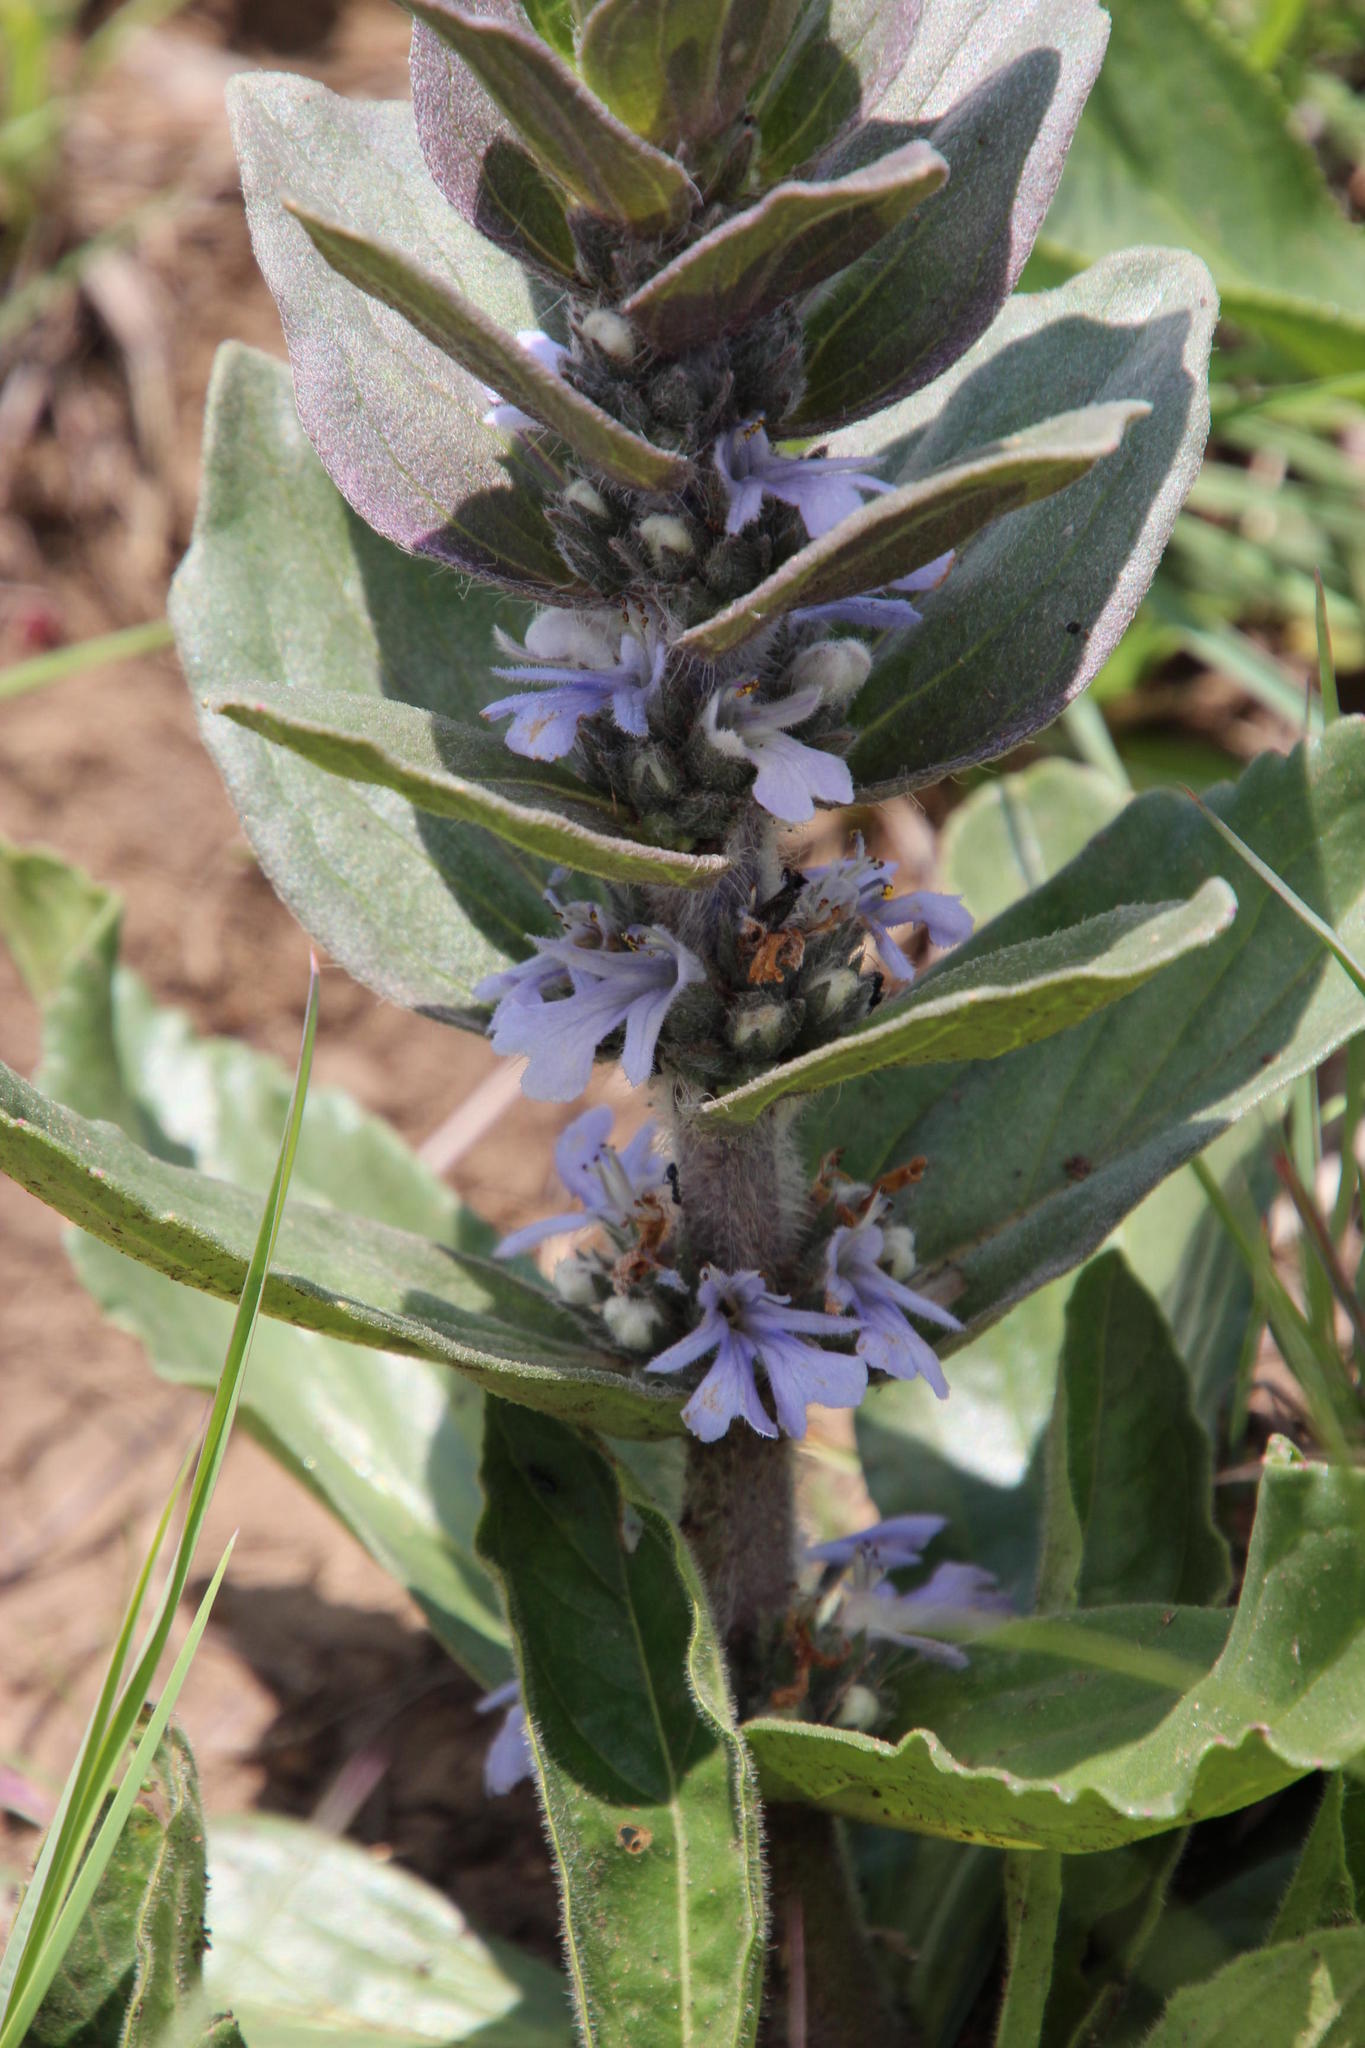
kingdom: Plantae
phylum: Tracheophyta
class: Magnoliopsida
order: Lamiales
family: Lamiaceae
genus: Ajuga
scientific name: Ajuga ophrydis
